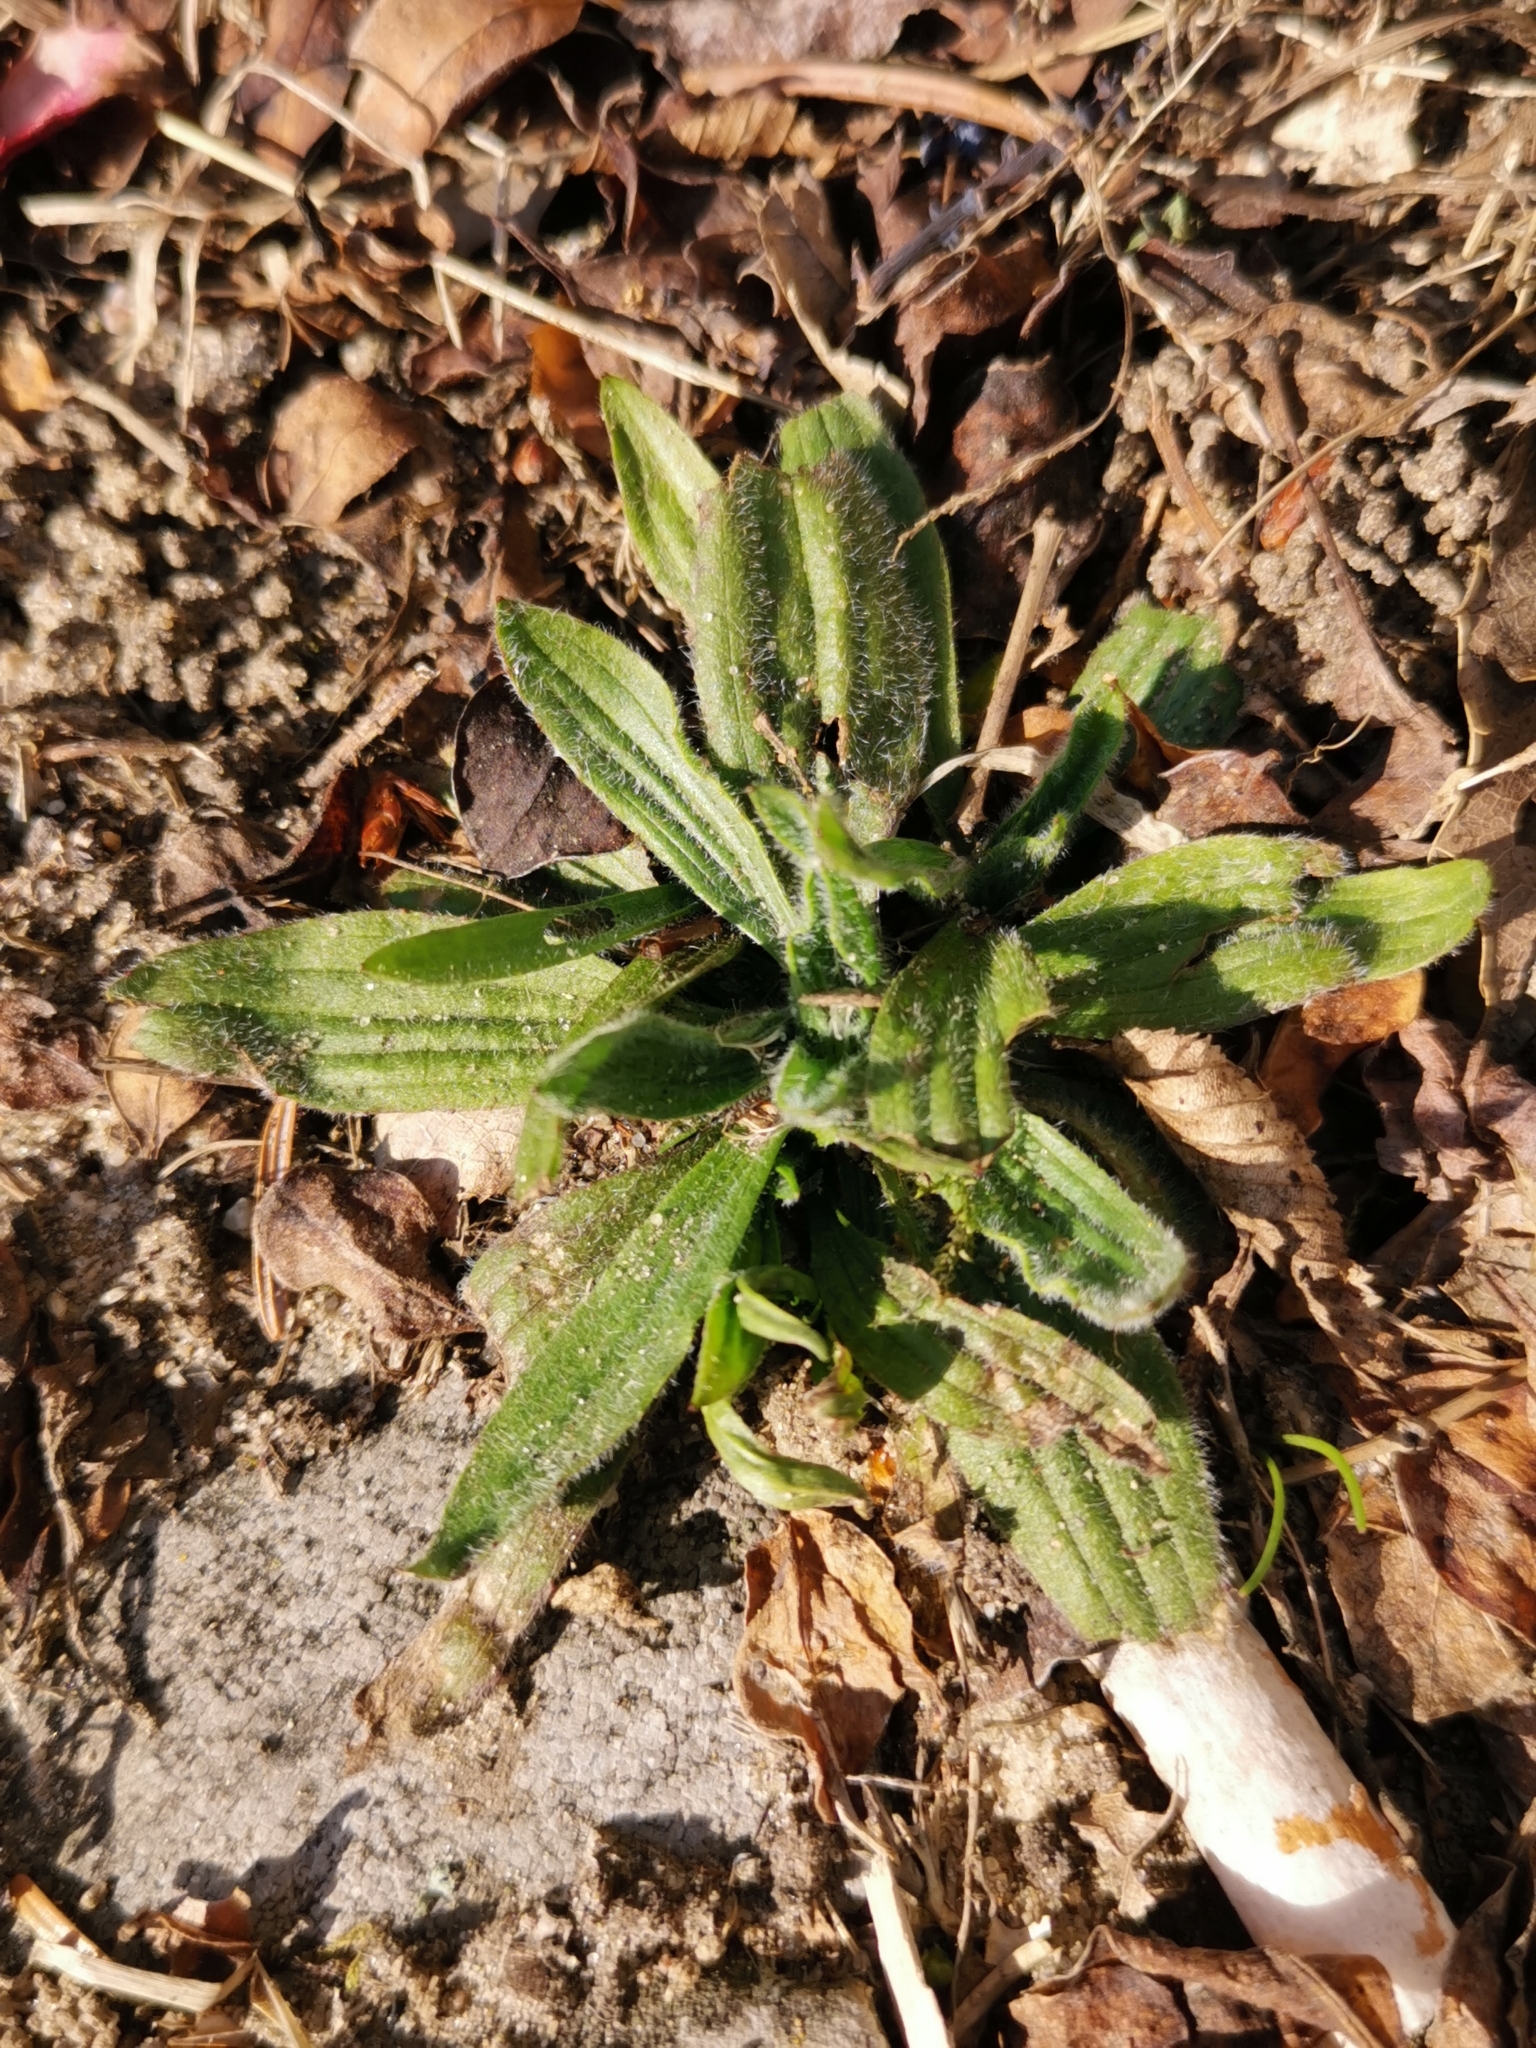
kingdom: Plantae
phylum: Tracheophyta
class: Magnoliopsida
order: Lamiales
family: Plantaginaceae
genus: Plantago
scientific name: Plantago lanceolata
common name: Ribwort plantain
